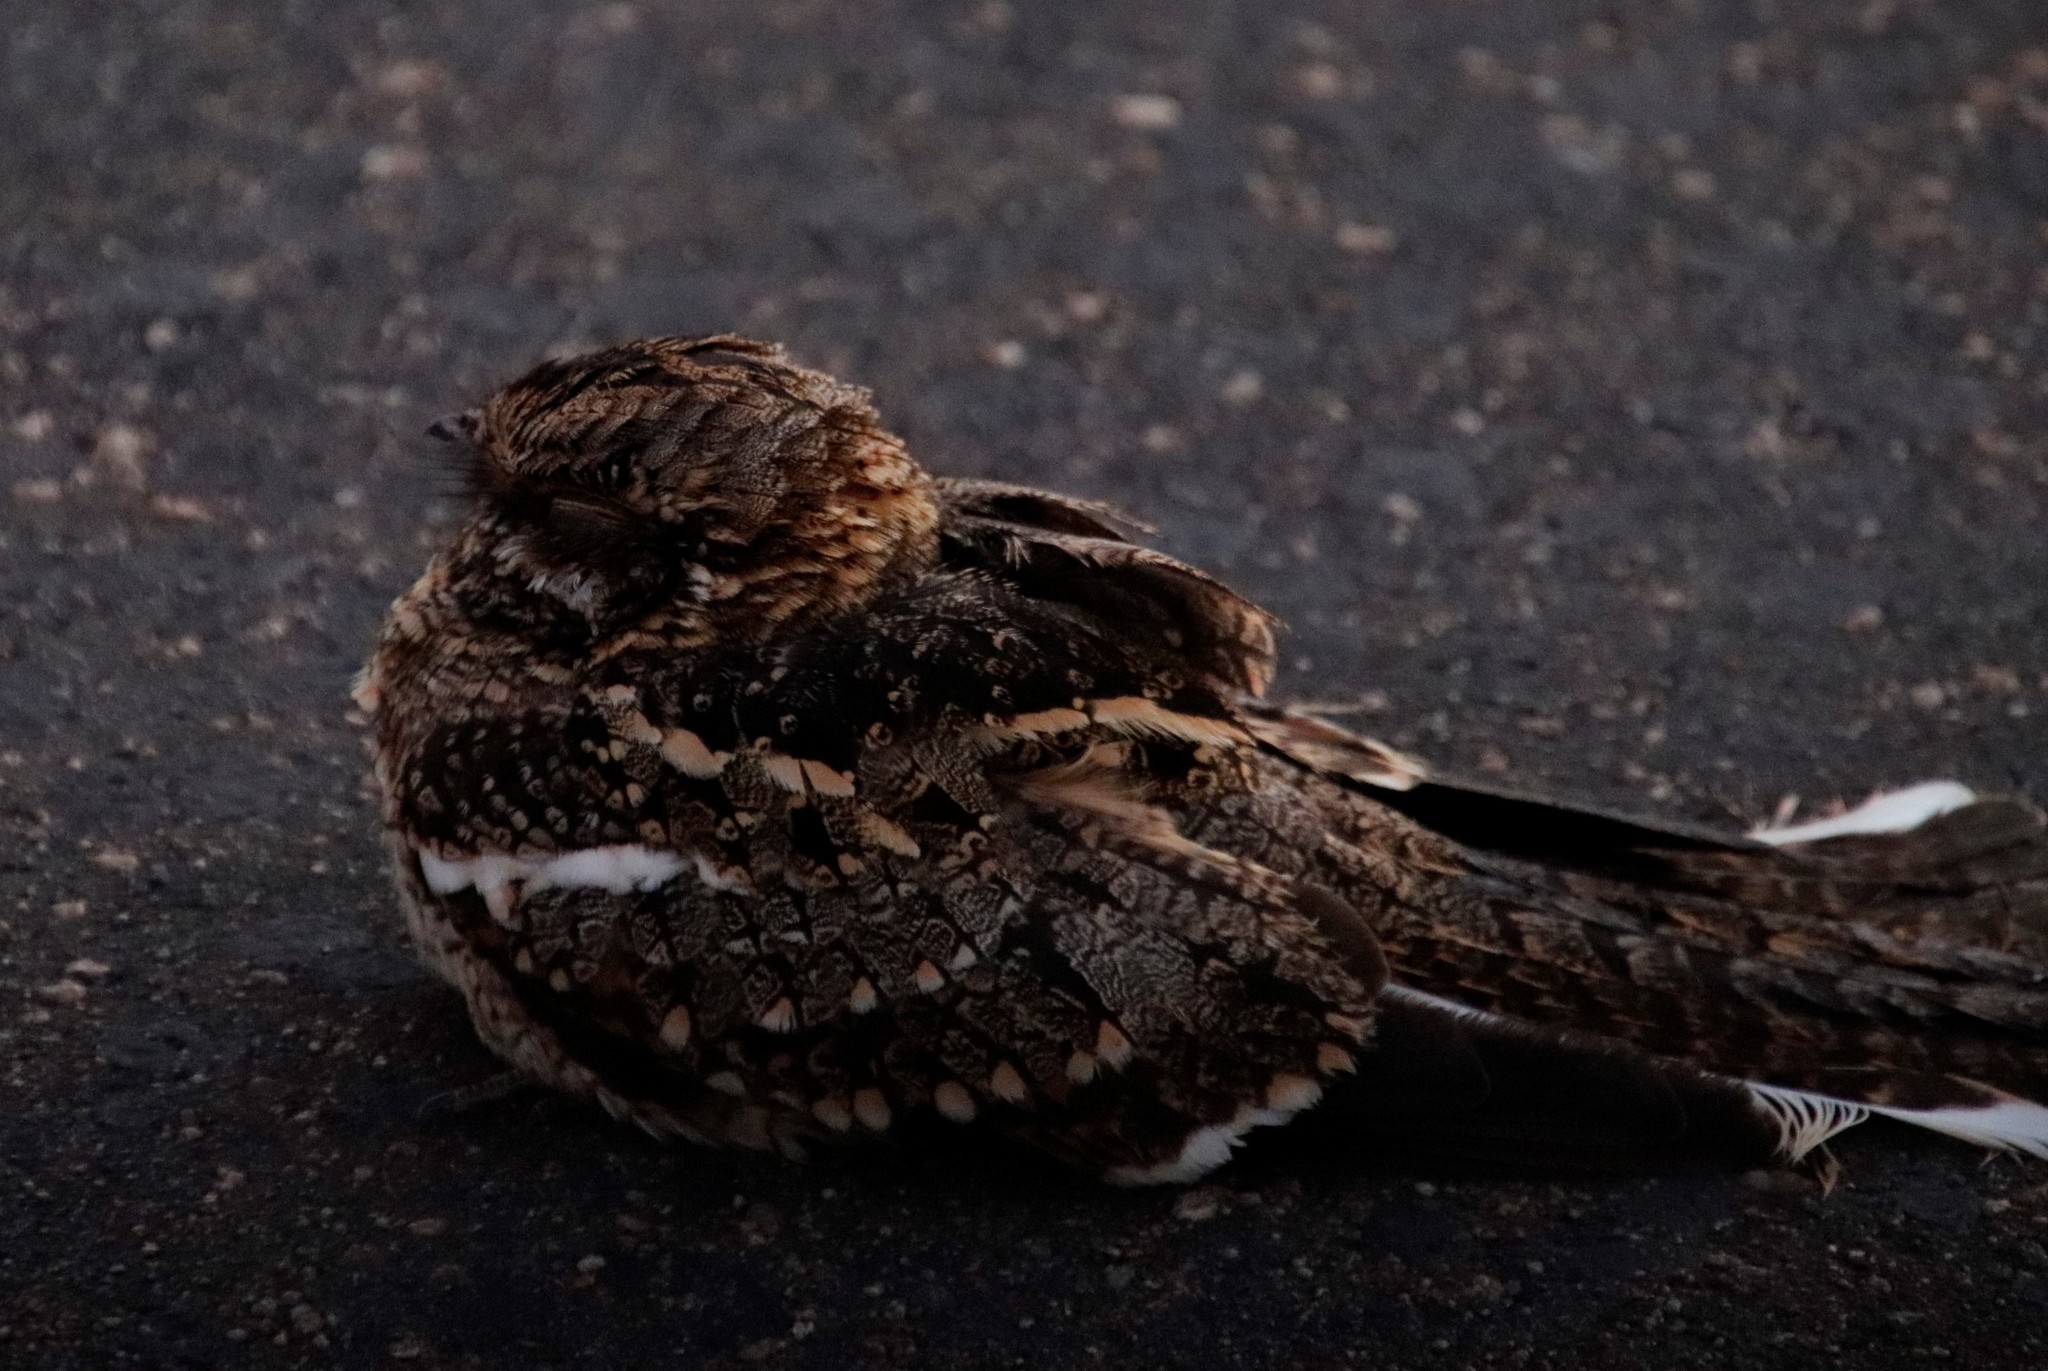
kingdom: Animalia
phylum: Chordata
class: Aves
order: Caprimulgiformes
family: Caprimulgidae
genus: Caprimulgus
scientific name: Caprimulgus pectoralis
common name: Fiery-necked nightjar
